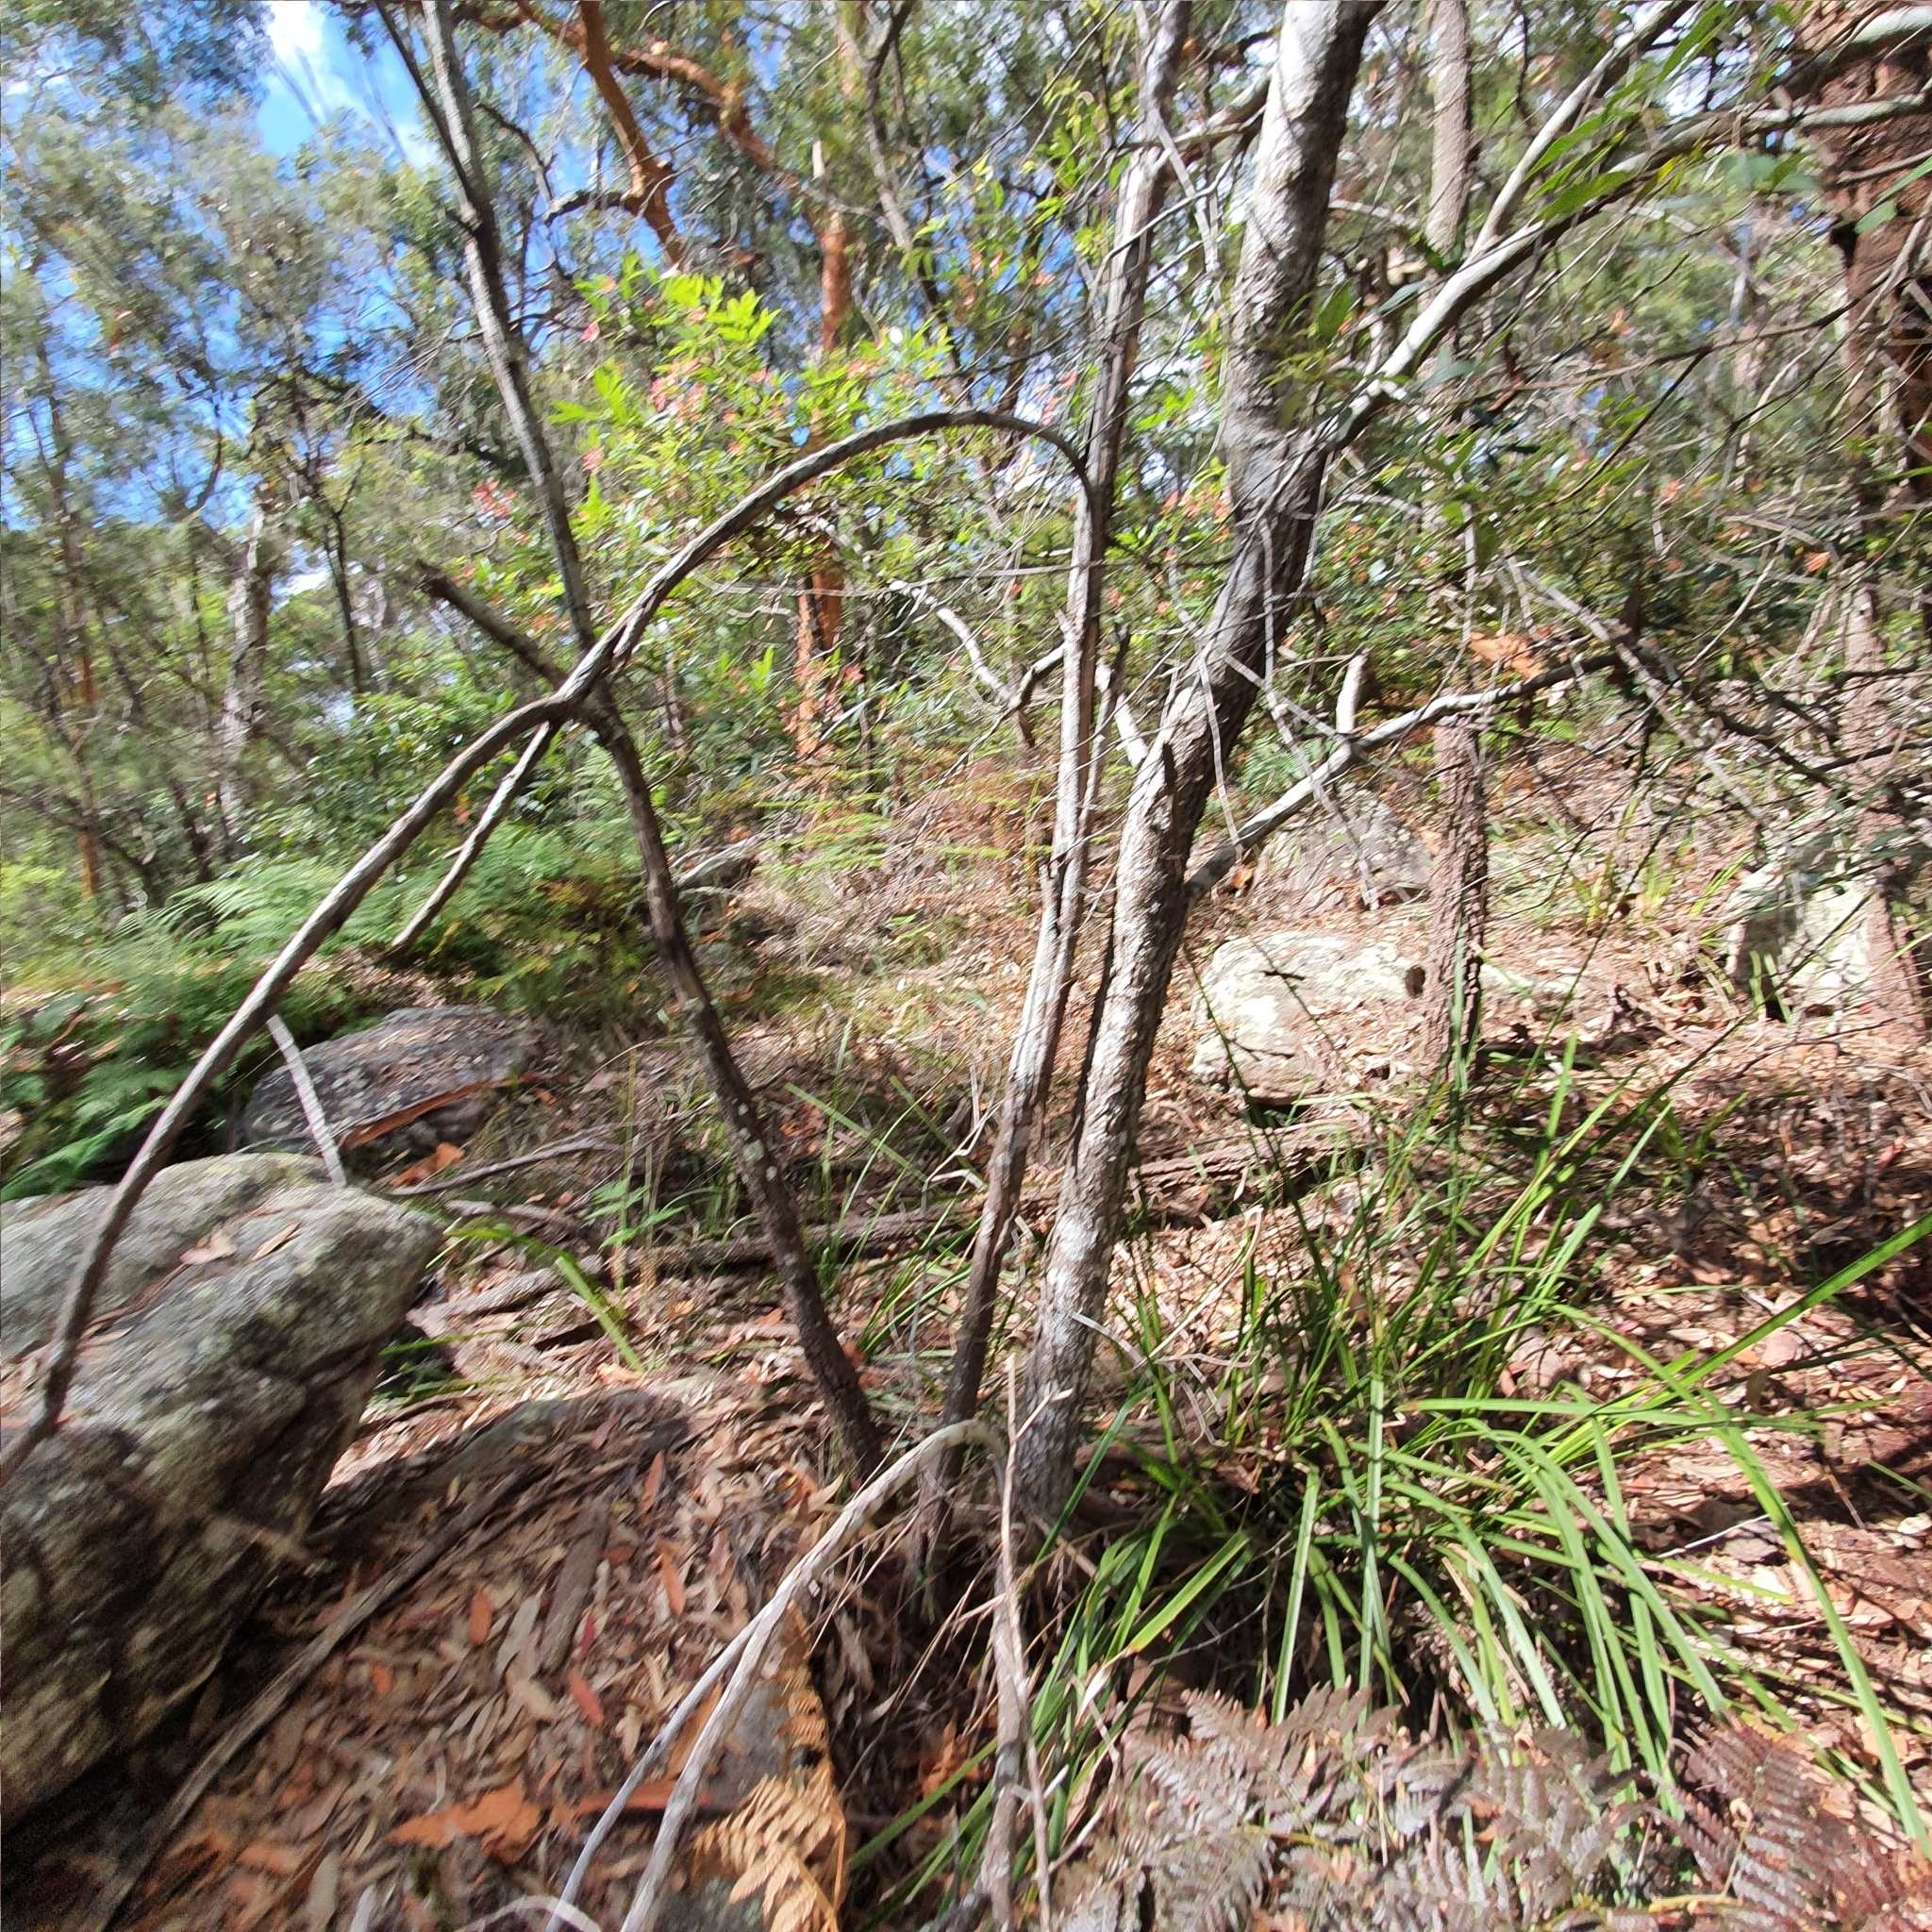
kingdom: Plantae
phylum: Tracheophyta
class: Magnoliopsida
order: Oxalidales
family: Cunoniaceae
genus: Ceratopetalum
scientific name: Ceratopetalum gummiferum
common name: Christmasbush
